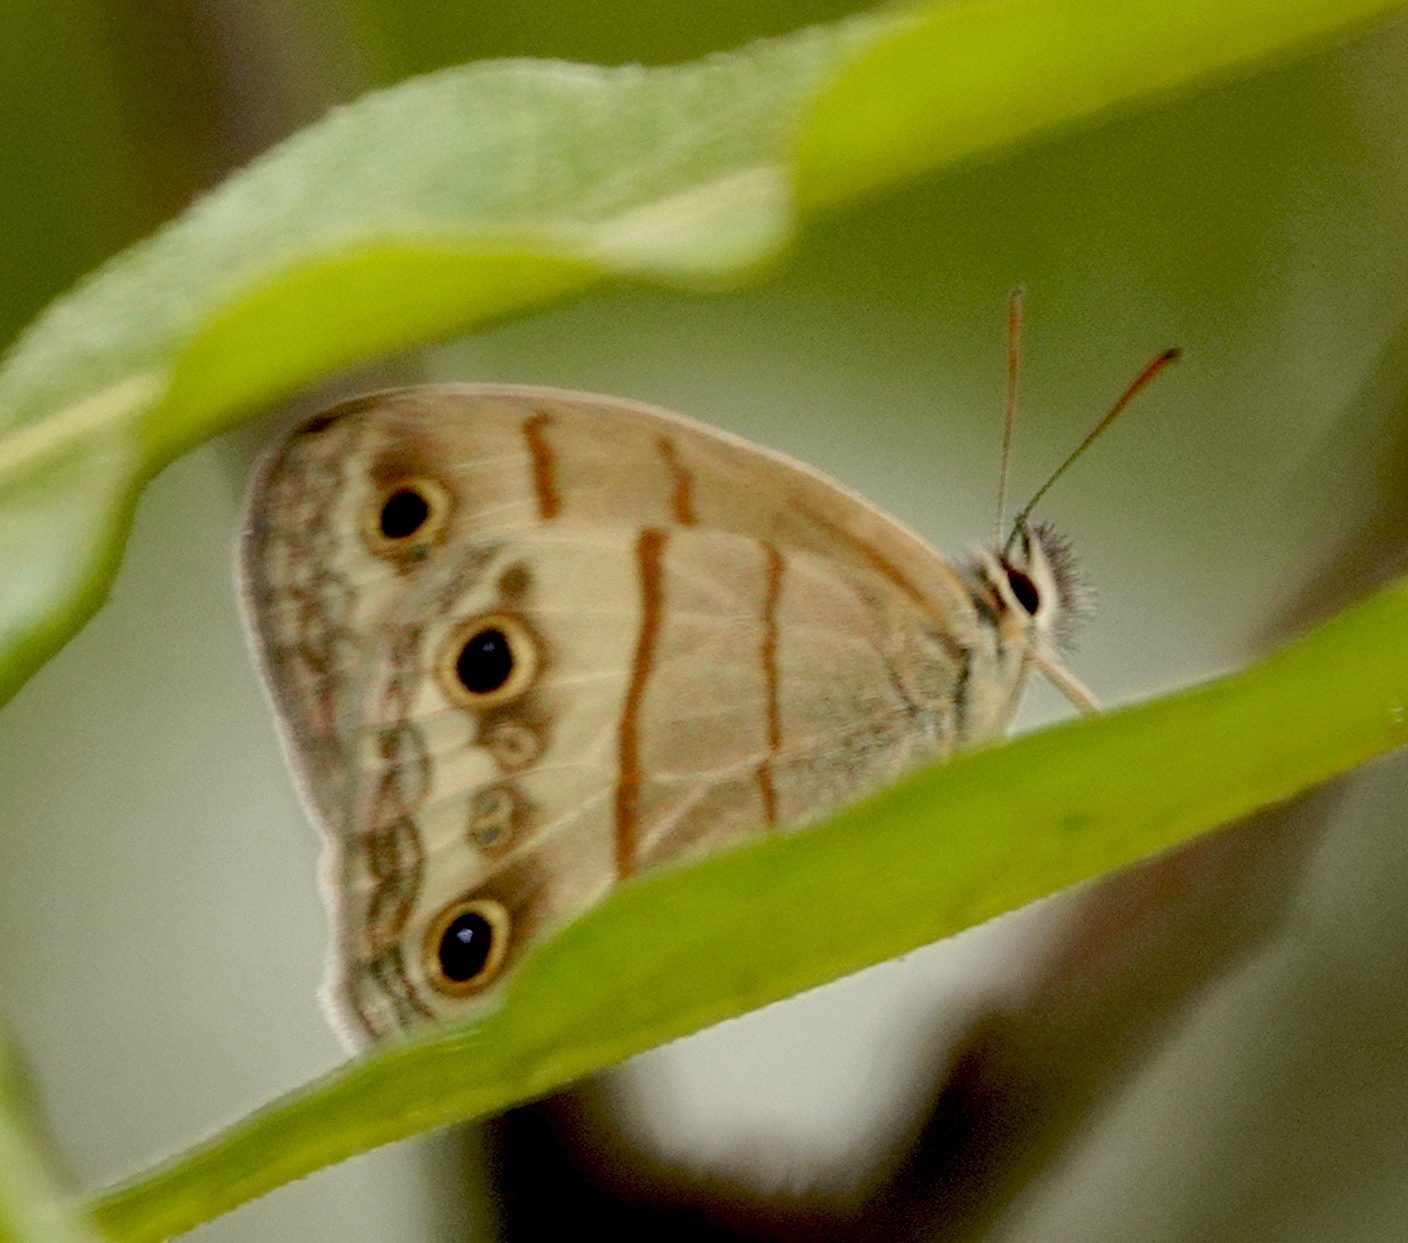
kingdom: Animalia
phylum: Arthropoda
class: Insecta
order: Lepidoptera
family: Nymphalidae
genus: Megeuptychia
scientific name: Megeuptychia antonoe
